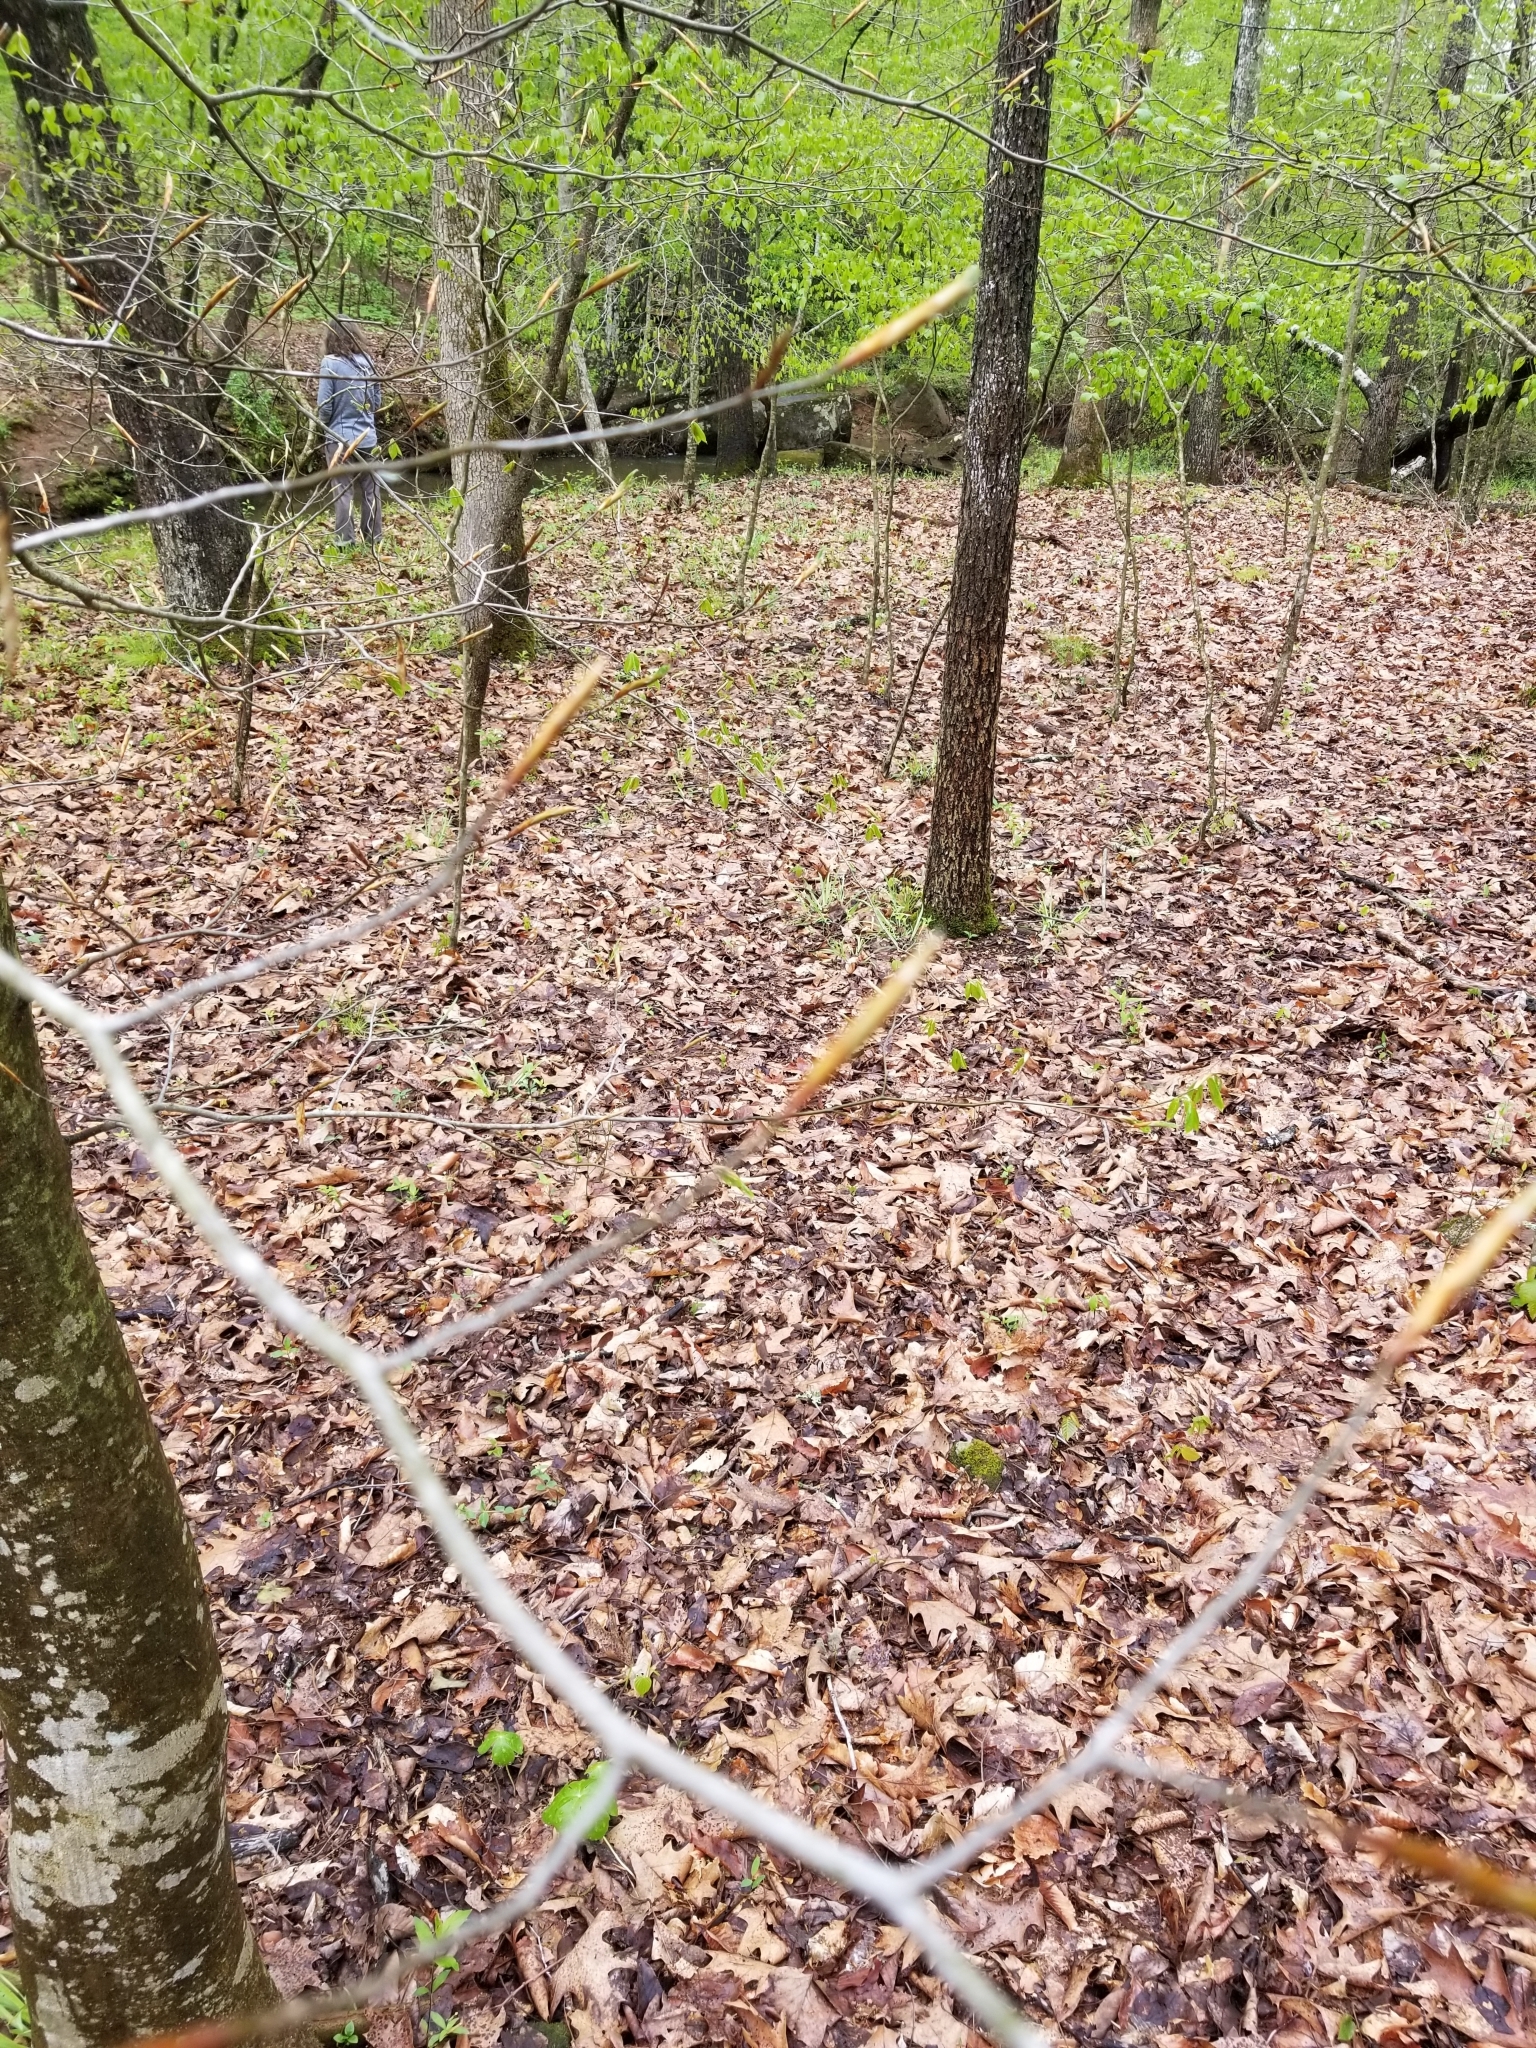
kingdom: Plantae
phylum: Tracheophyta
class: Magnoliopsida
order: Fagales
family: Fagaceae
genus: Fagus
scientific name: Fagus grandifolia
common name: American beech
